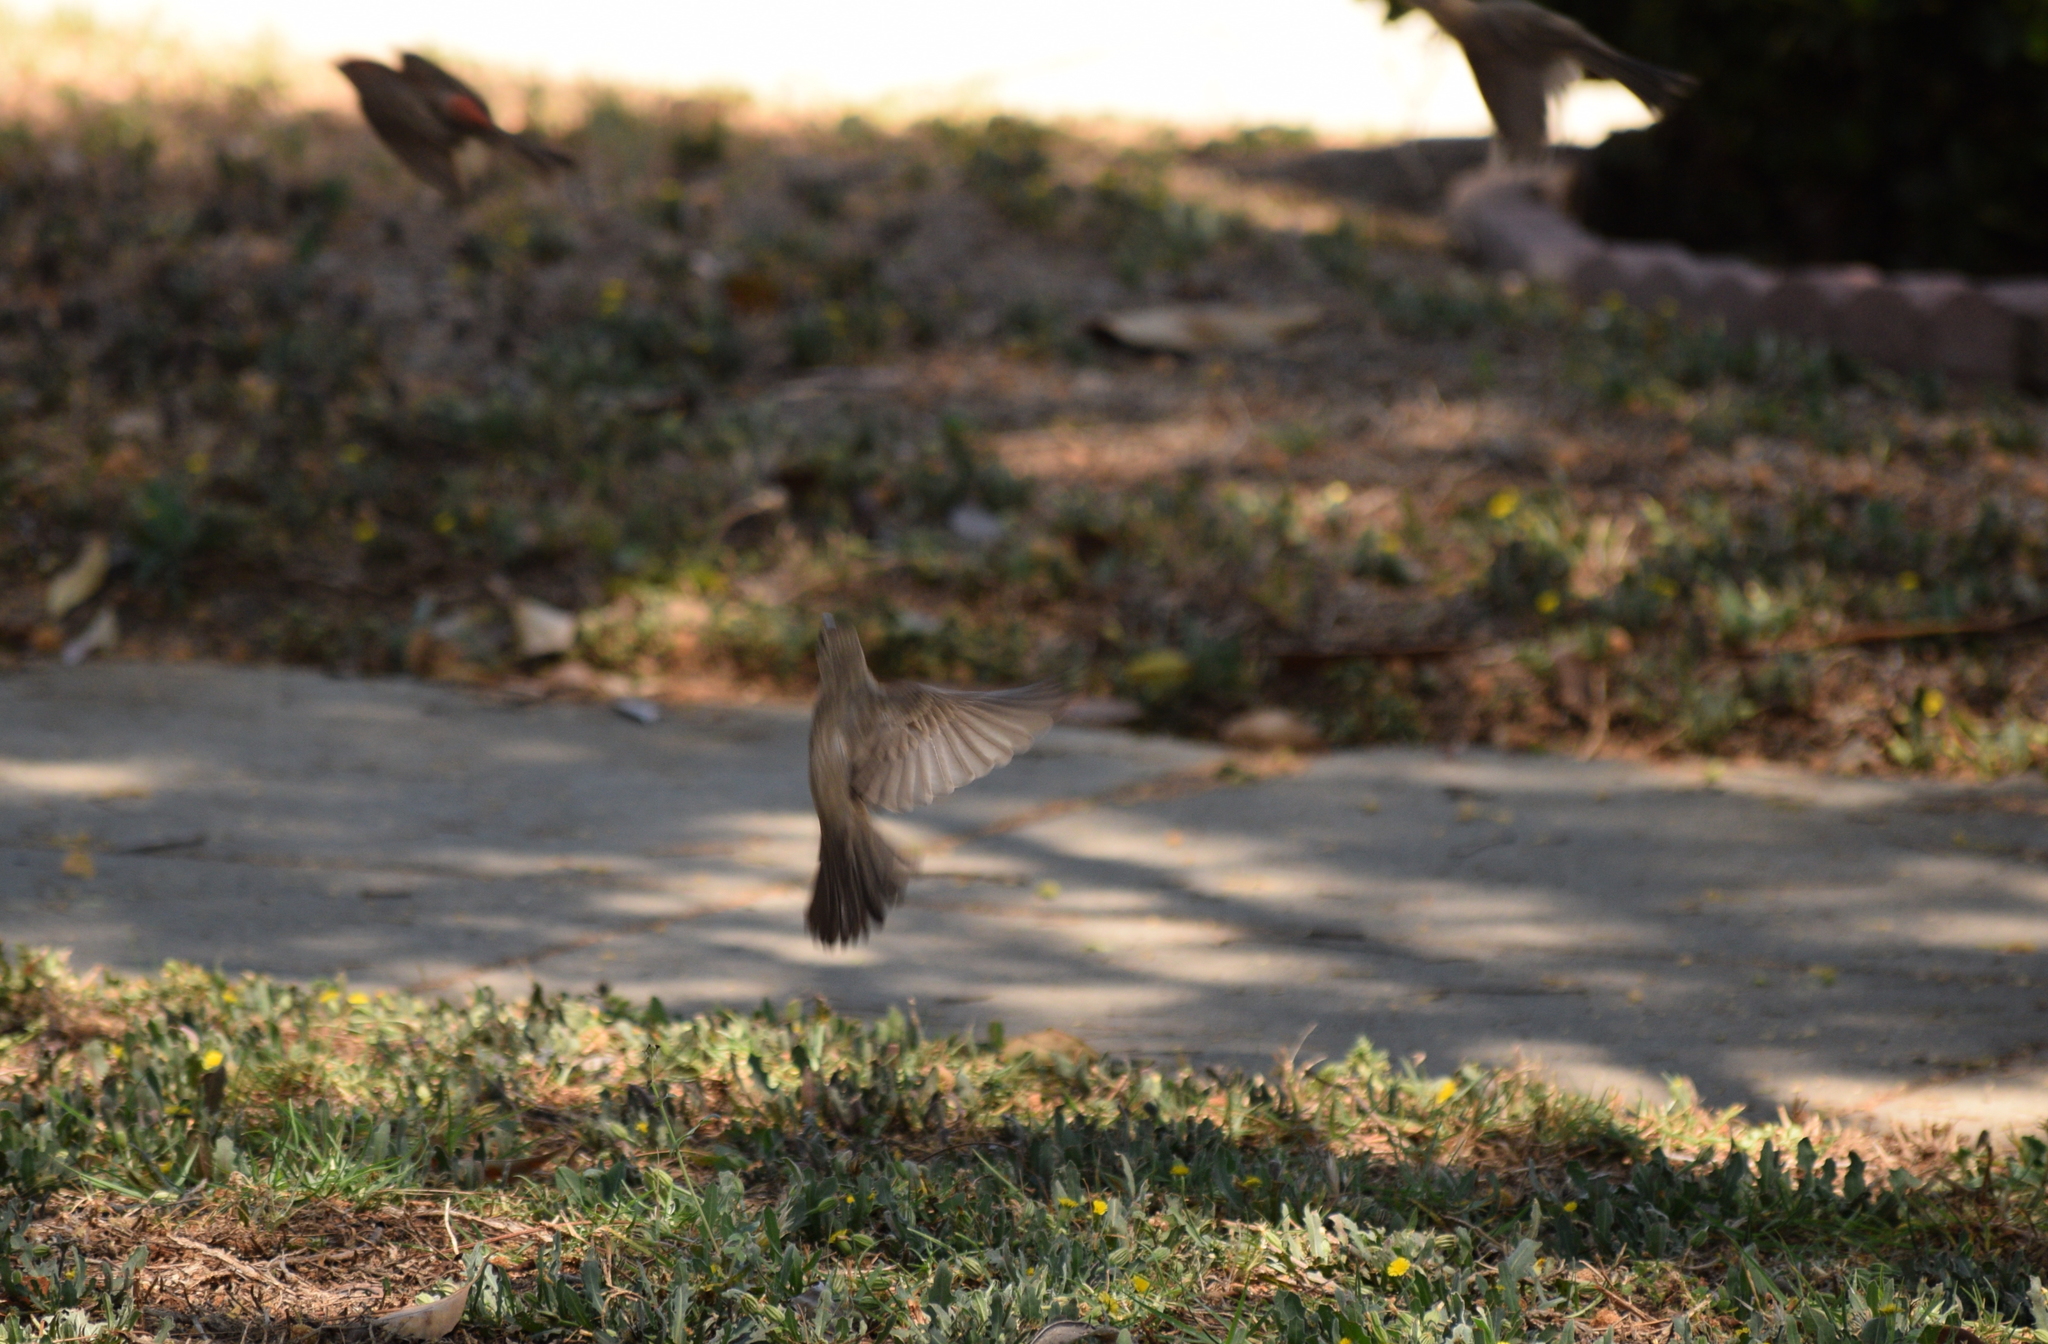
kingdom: Animalia
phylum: Chordata
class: Aves
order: Passeriformes
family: Fringillidae
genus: Haemorhous
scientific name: Haemorhous mexicanus
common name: House finch
